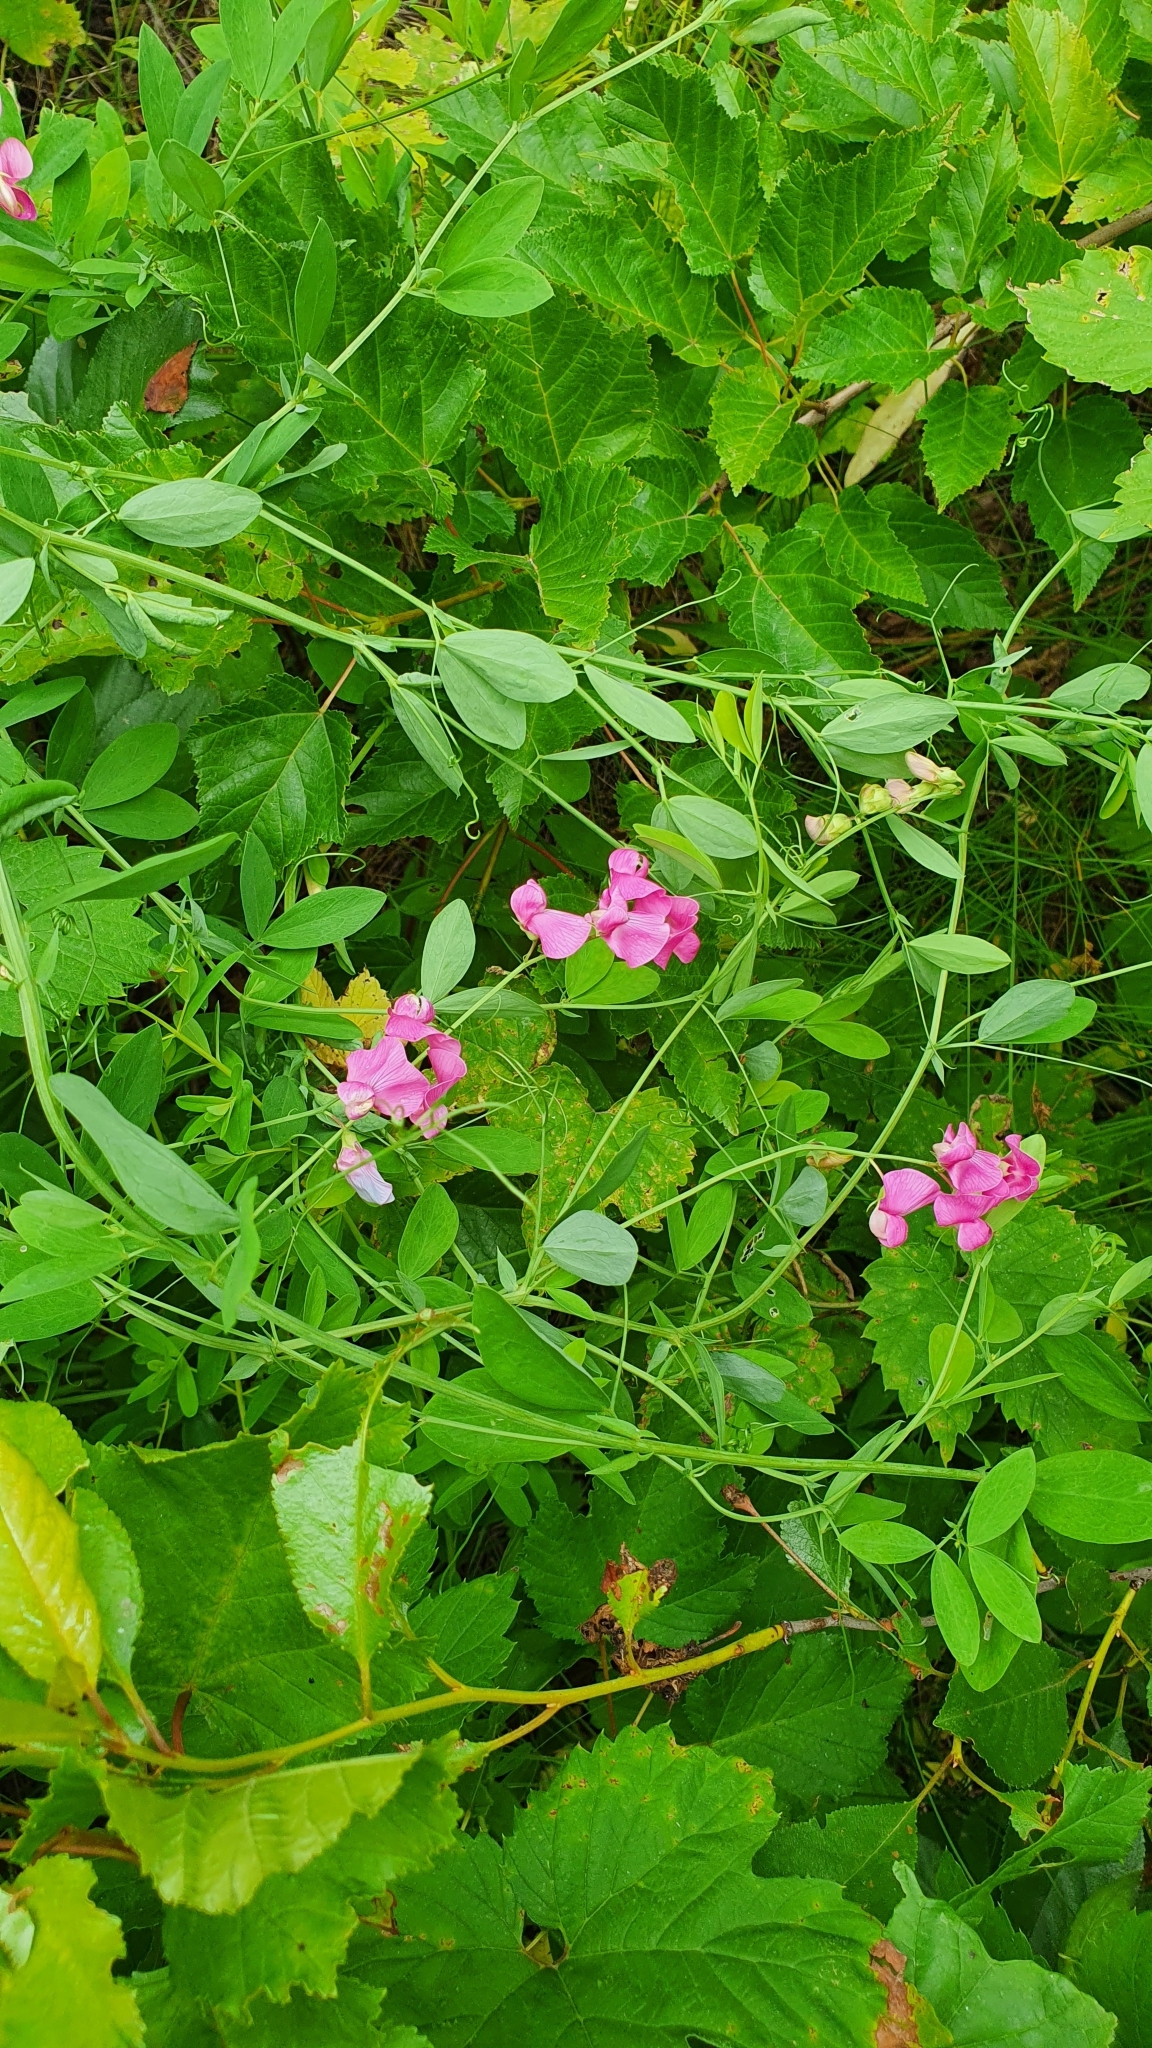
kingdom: Plantae
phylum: Tracheophyta
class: Magnoliopsida
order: Fabales
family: Fabaceae
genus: Lathyrus
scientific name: Lathyrus tuberosus
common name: Tuberous pea
